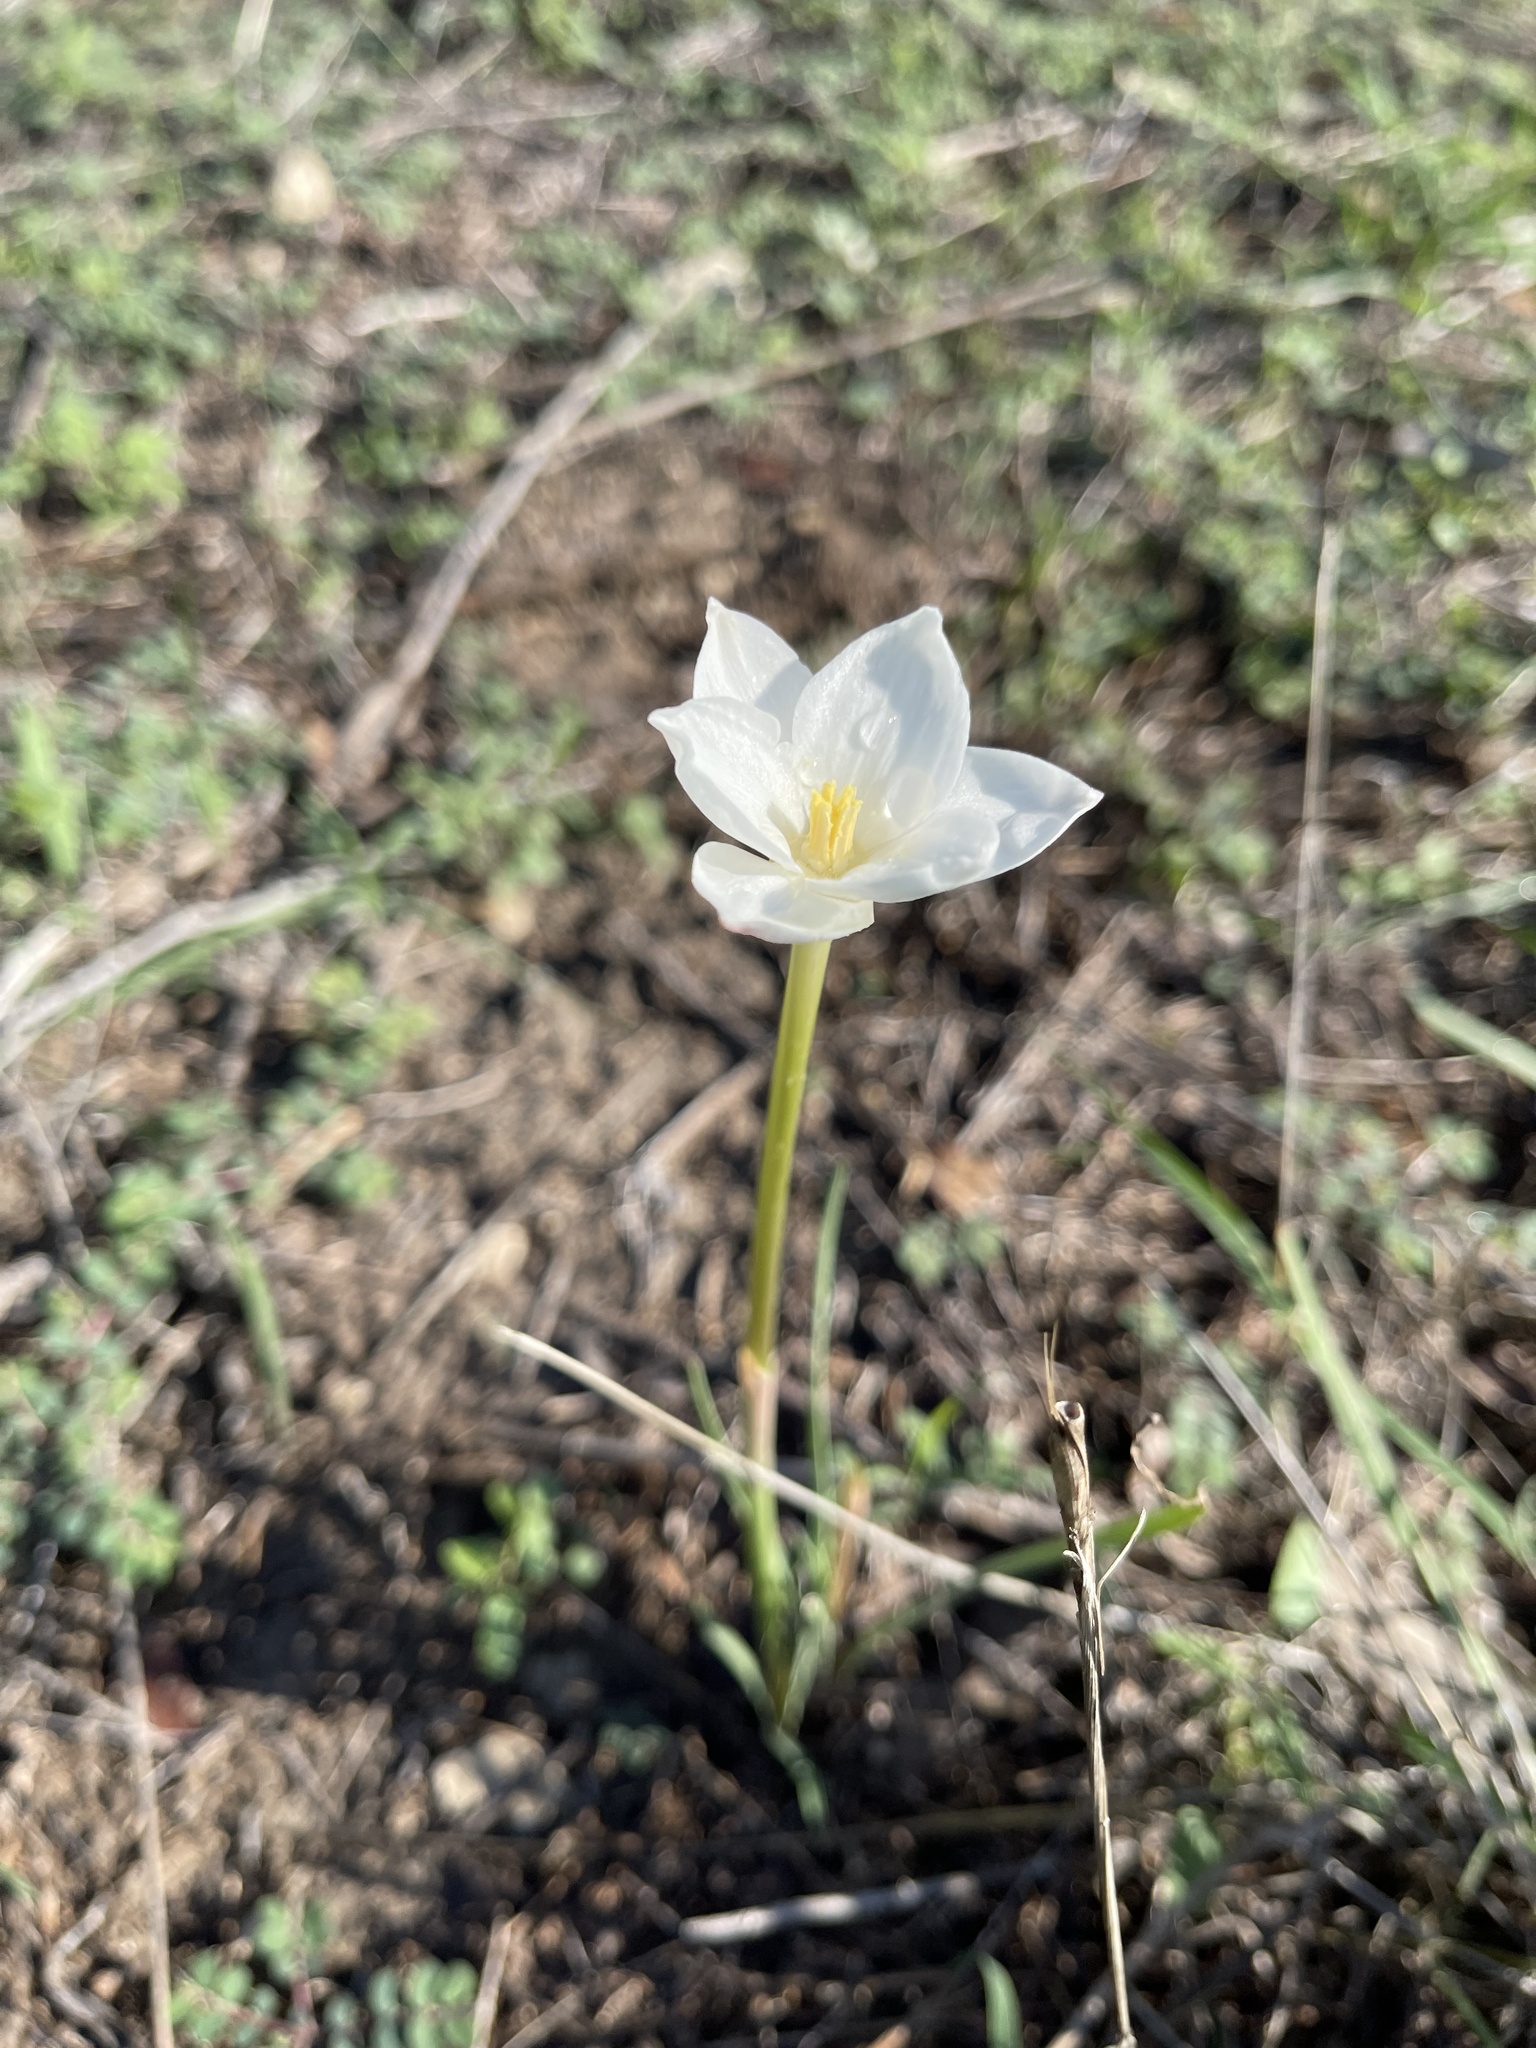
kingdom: Plantae
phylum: Tracheophyta
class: Liliopsida
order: Asparagales
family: Amaryllidaceae
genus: Zephyranthes
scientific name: Zephyranthes chlorosolen
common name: Evening rain-lily
